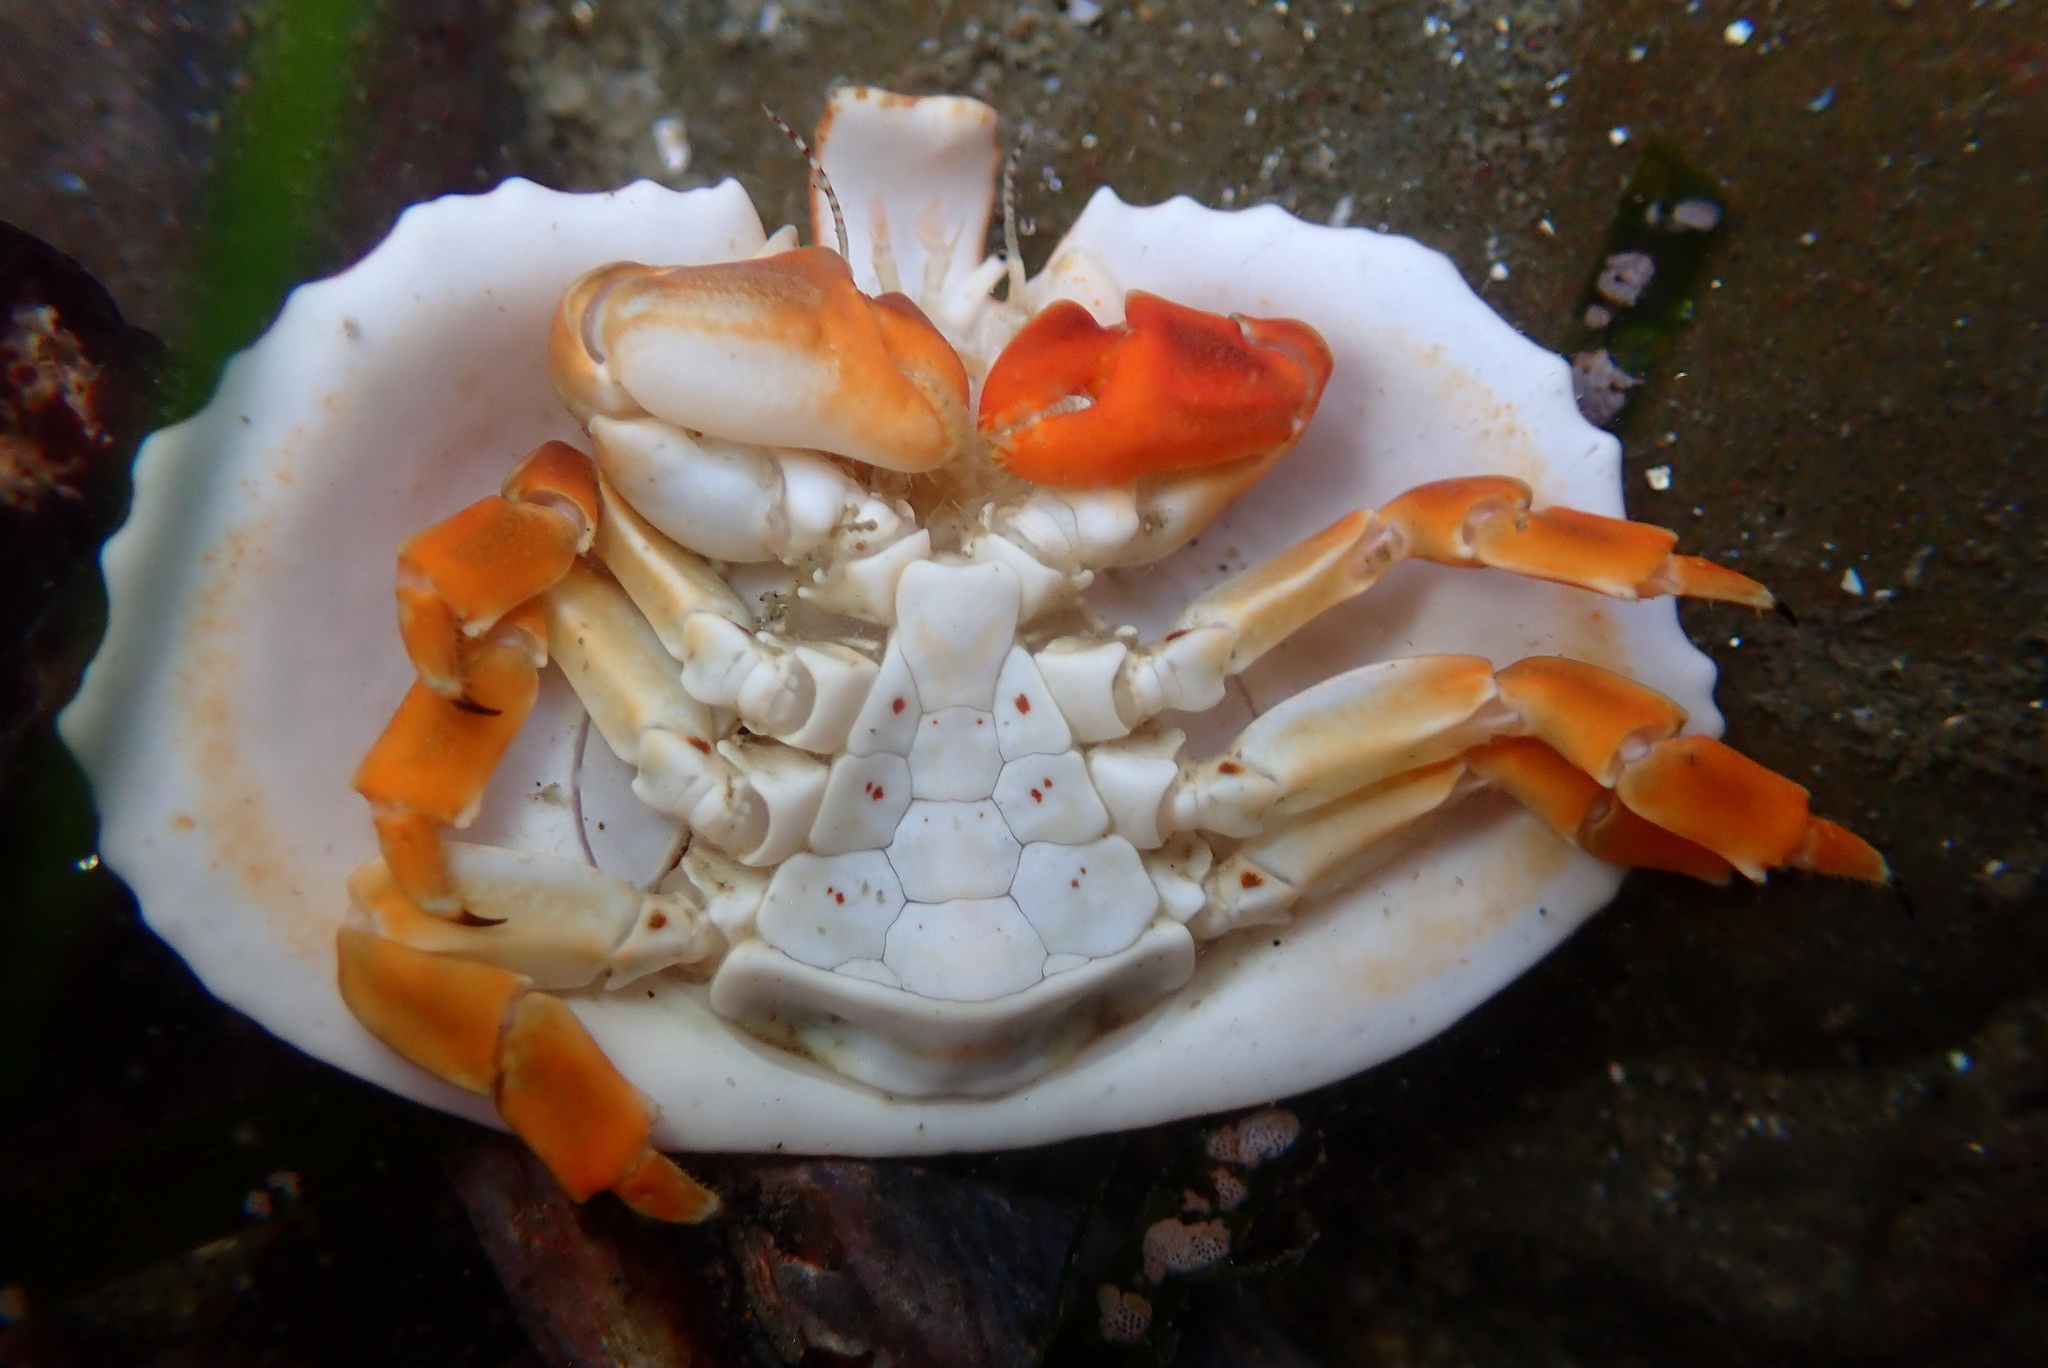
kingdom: Animalia
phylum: Arthropoda
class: Malacostraca
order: Decapoda
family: Lithodidae
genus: Cryptolithodes
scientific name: Cryptolithodes sitchensis
